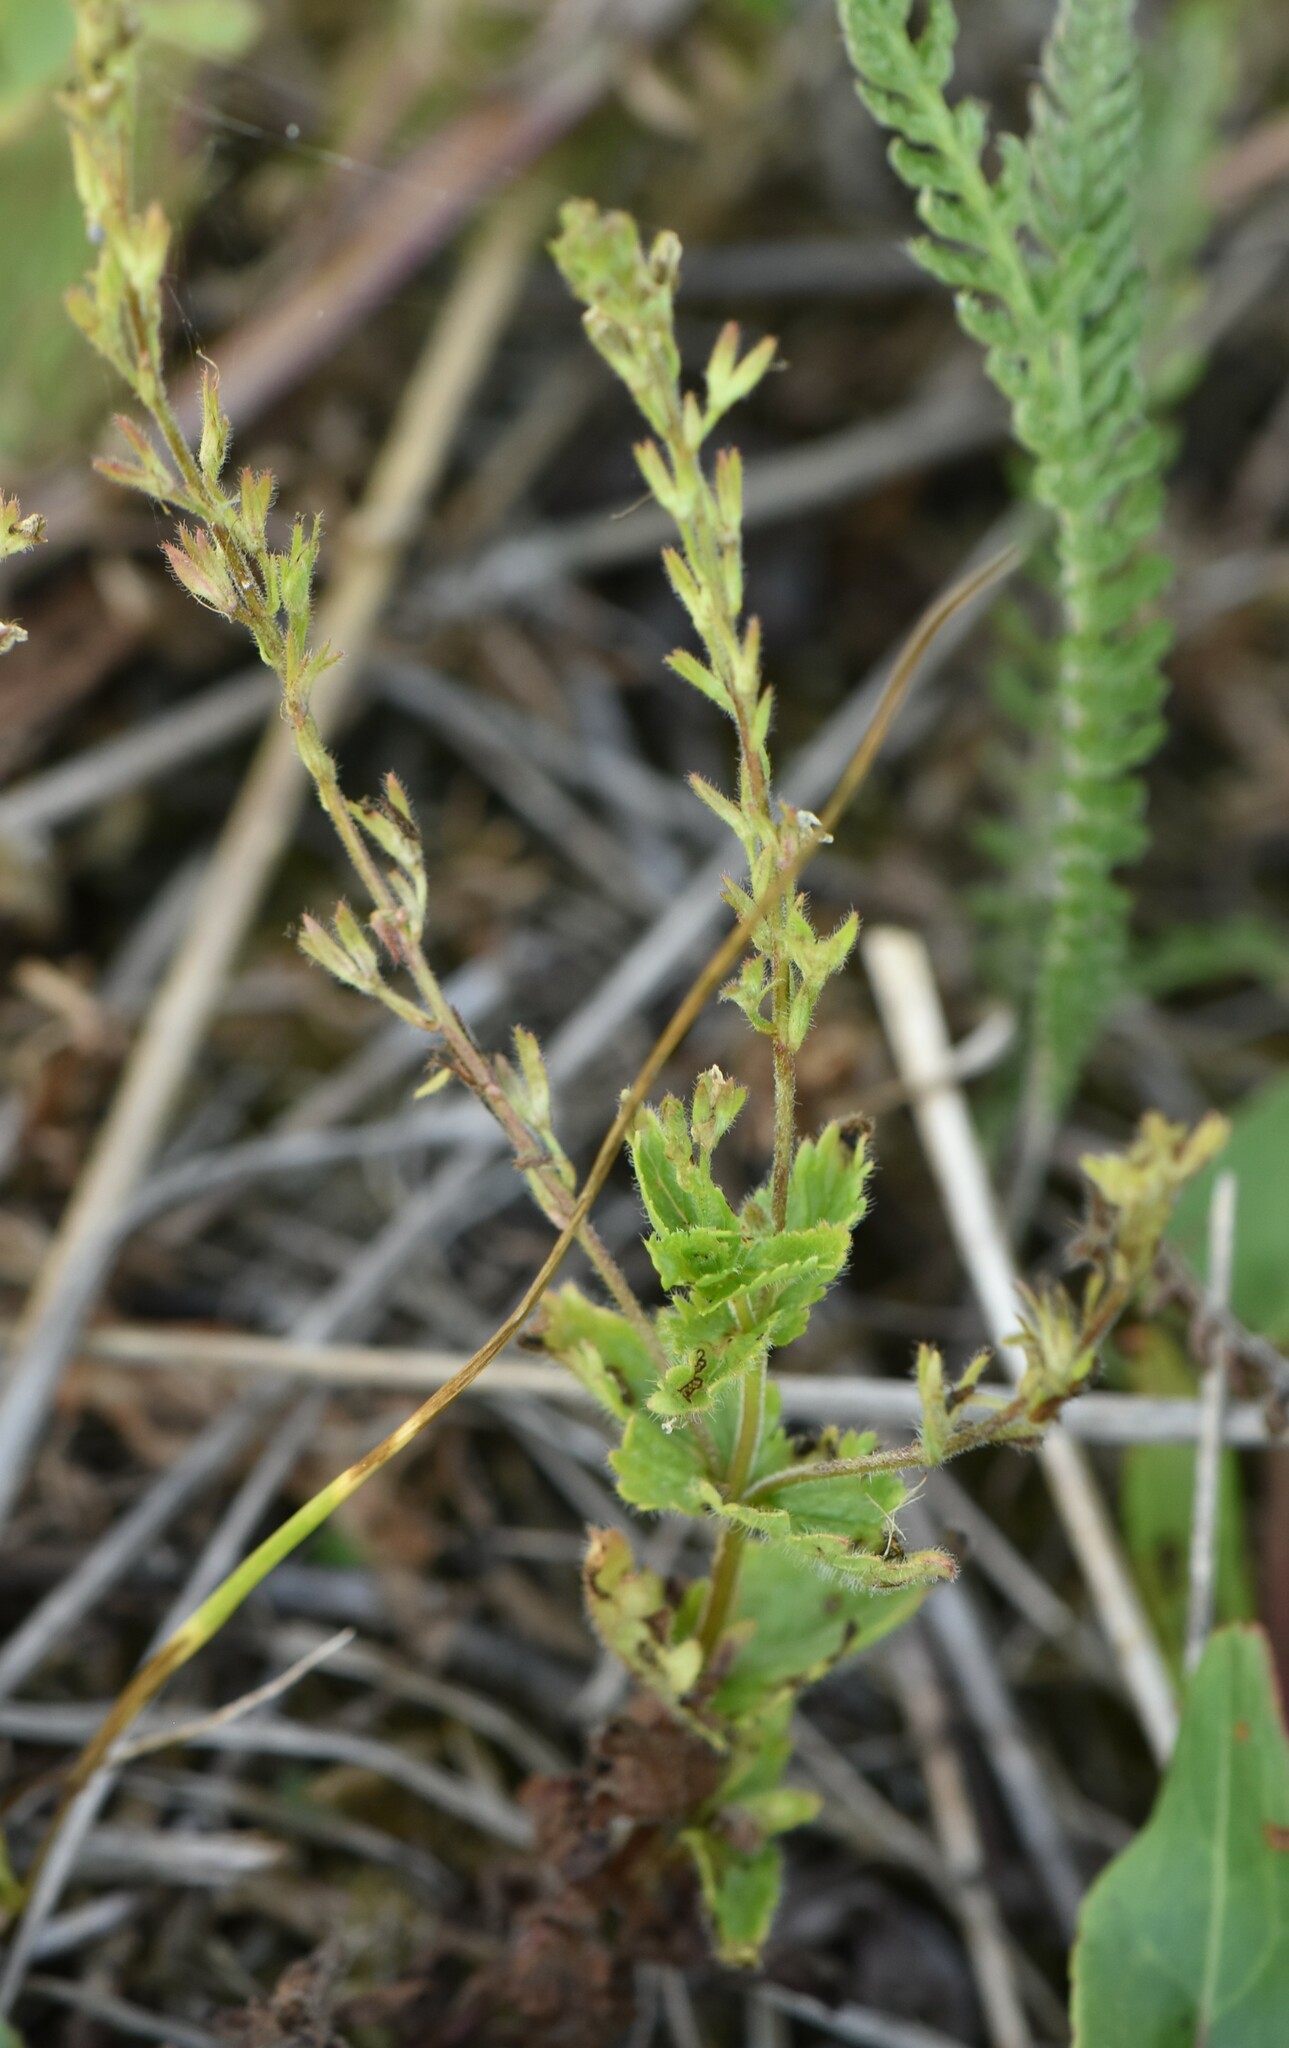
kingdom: Plantae
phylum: Tracheophyta
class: Magnoliopsida
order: Lamiales
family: Plantaginaceae
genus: Veronica
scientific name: Veronica chamaedrys
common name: Germander speedwell
